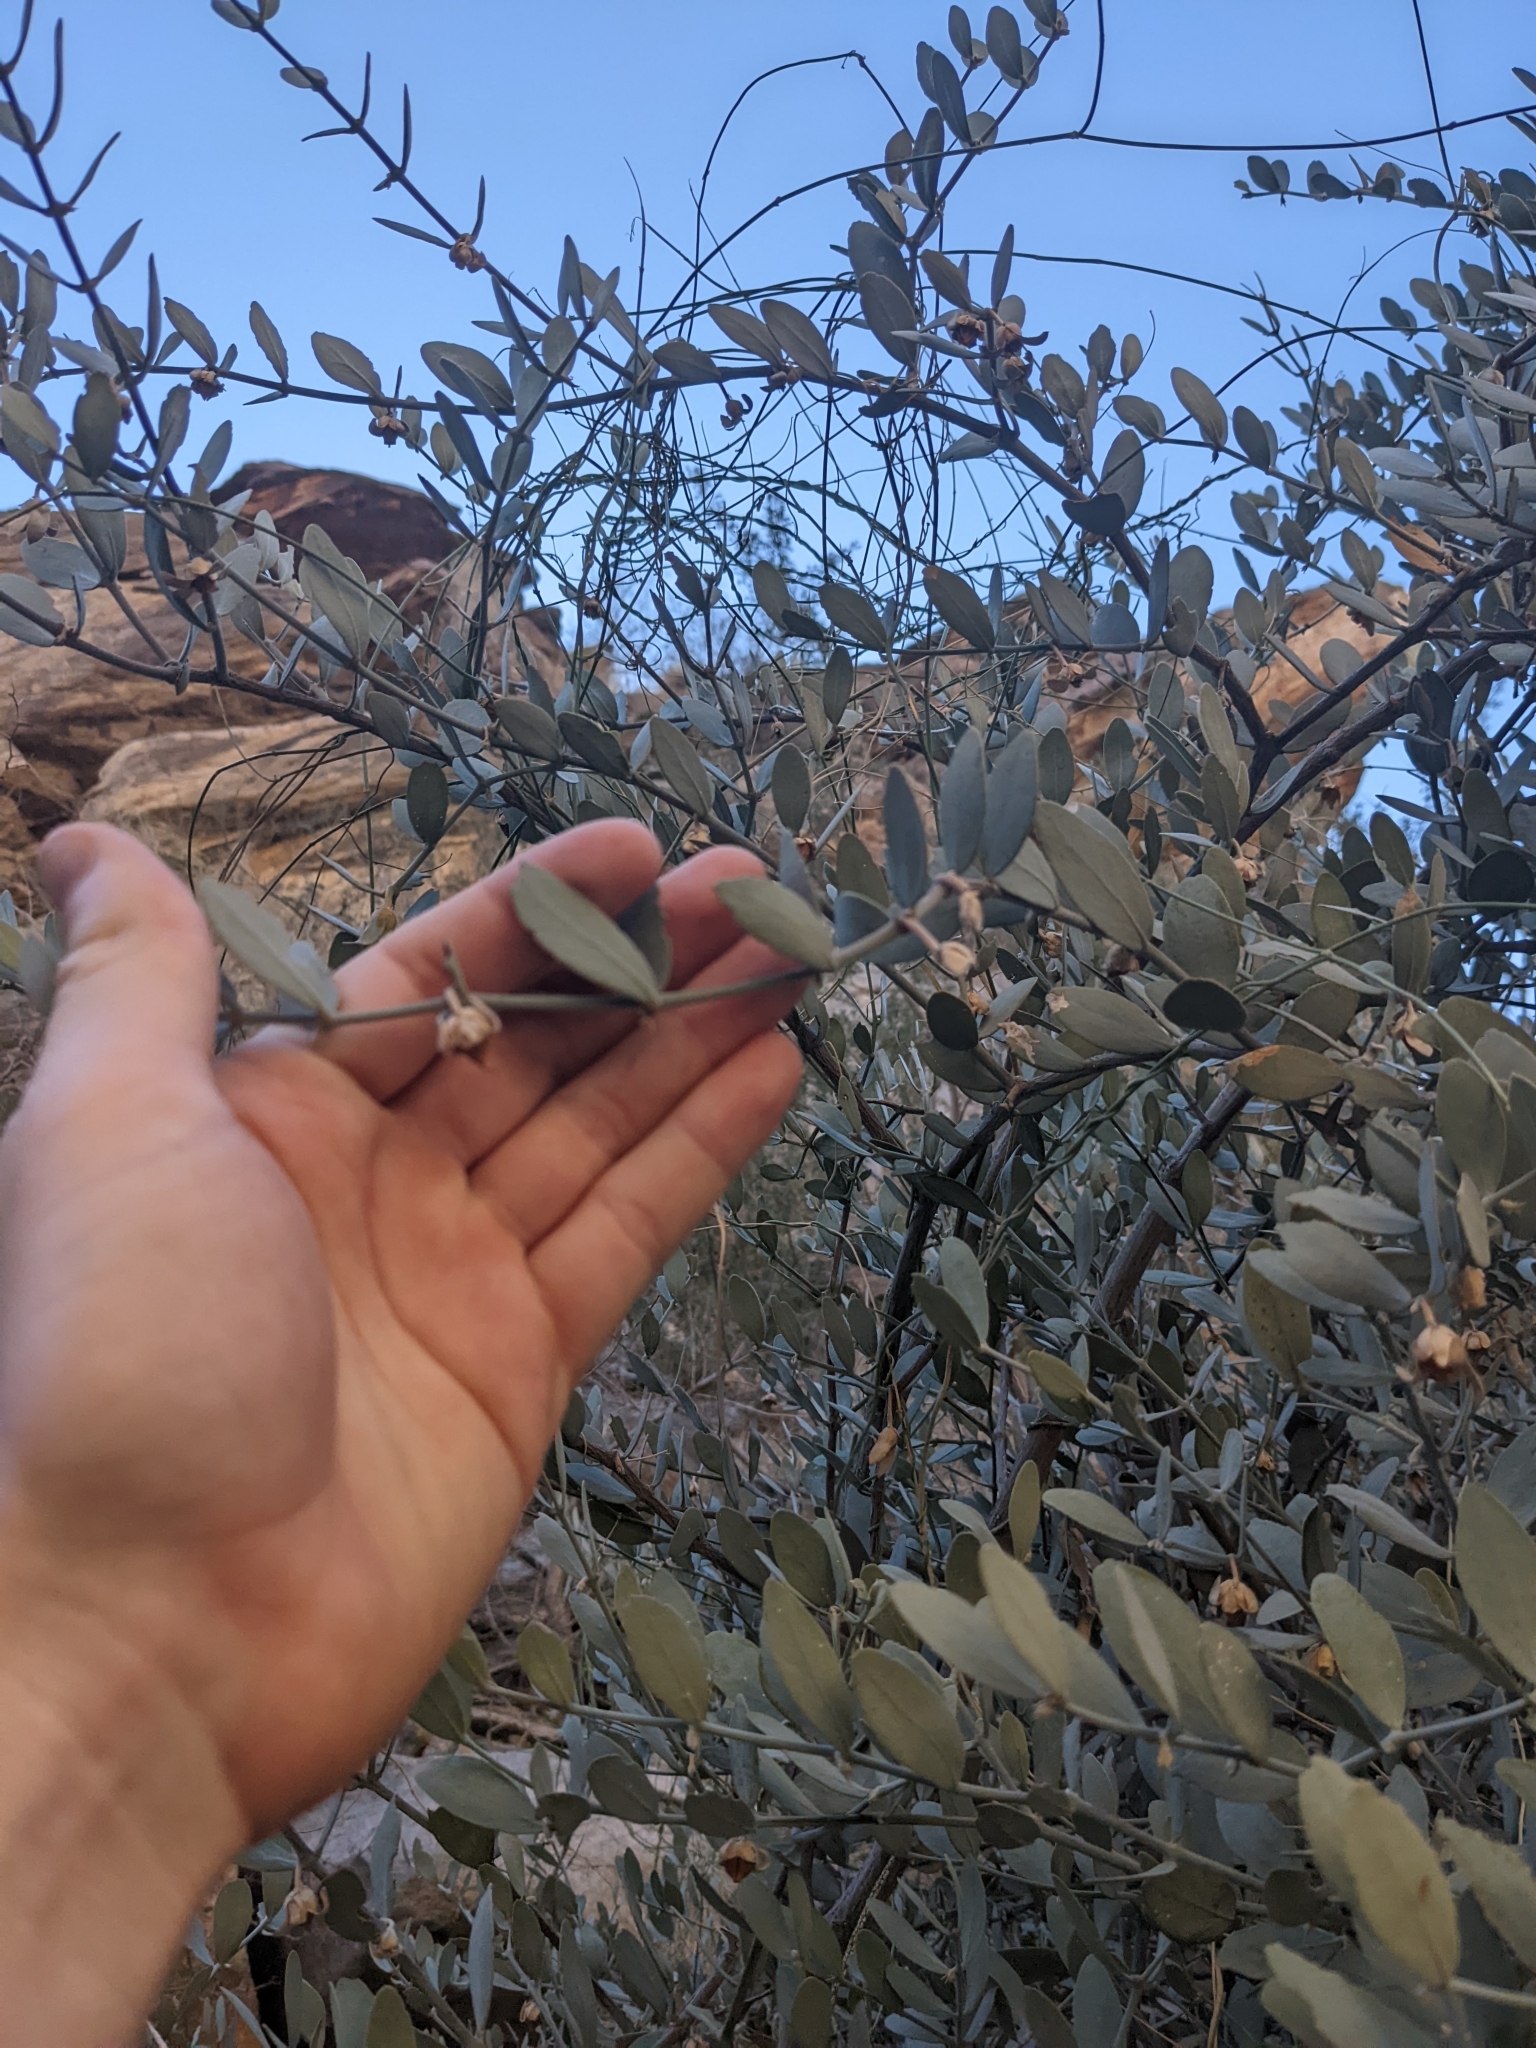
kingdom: Plantae
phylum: Tracheophyta
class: Magnoliopsida
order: Caryophyllales
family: Simmondsiaceae
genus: Simmondsia
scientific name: Simmondsia chinensis
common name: Jojoba
